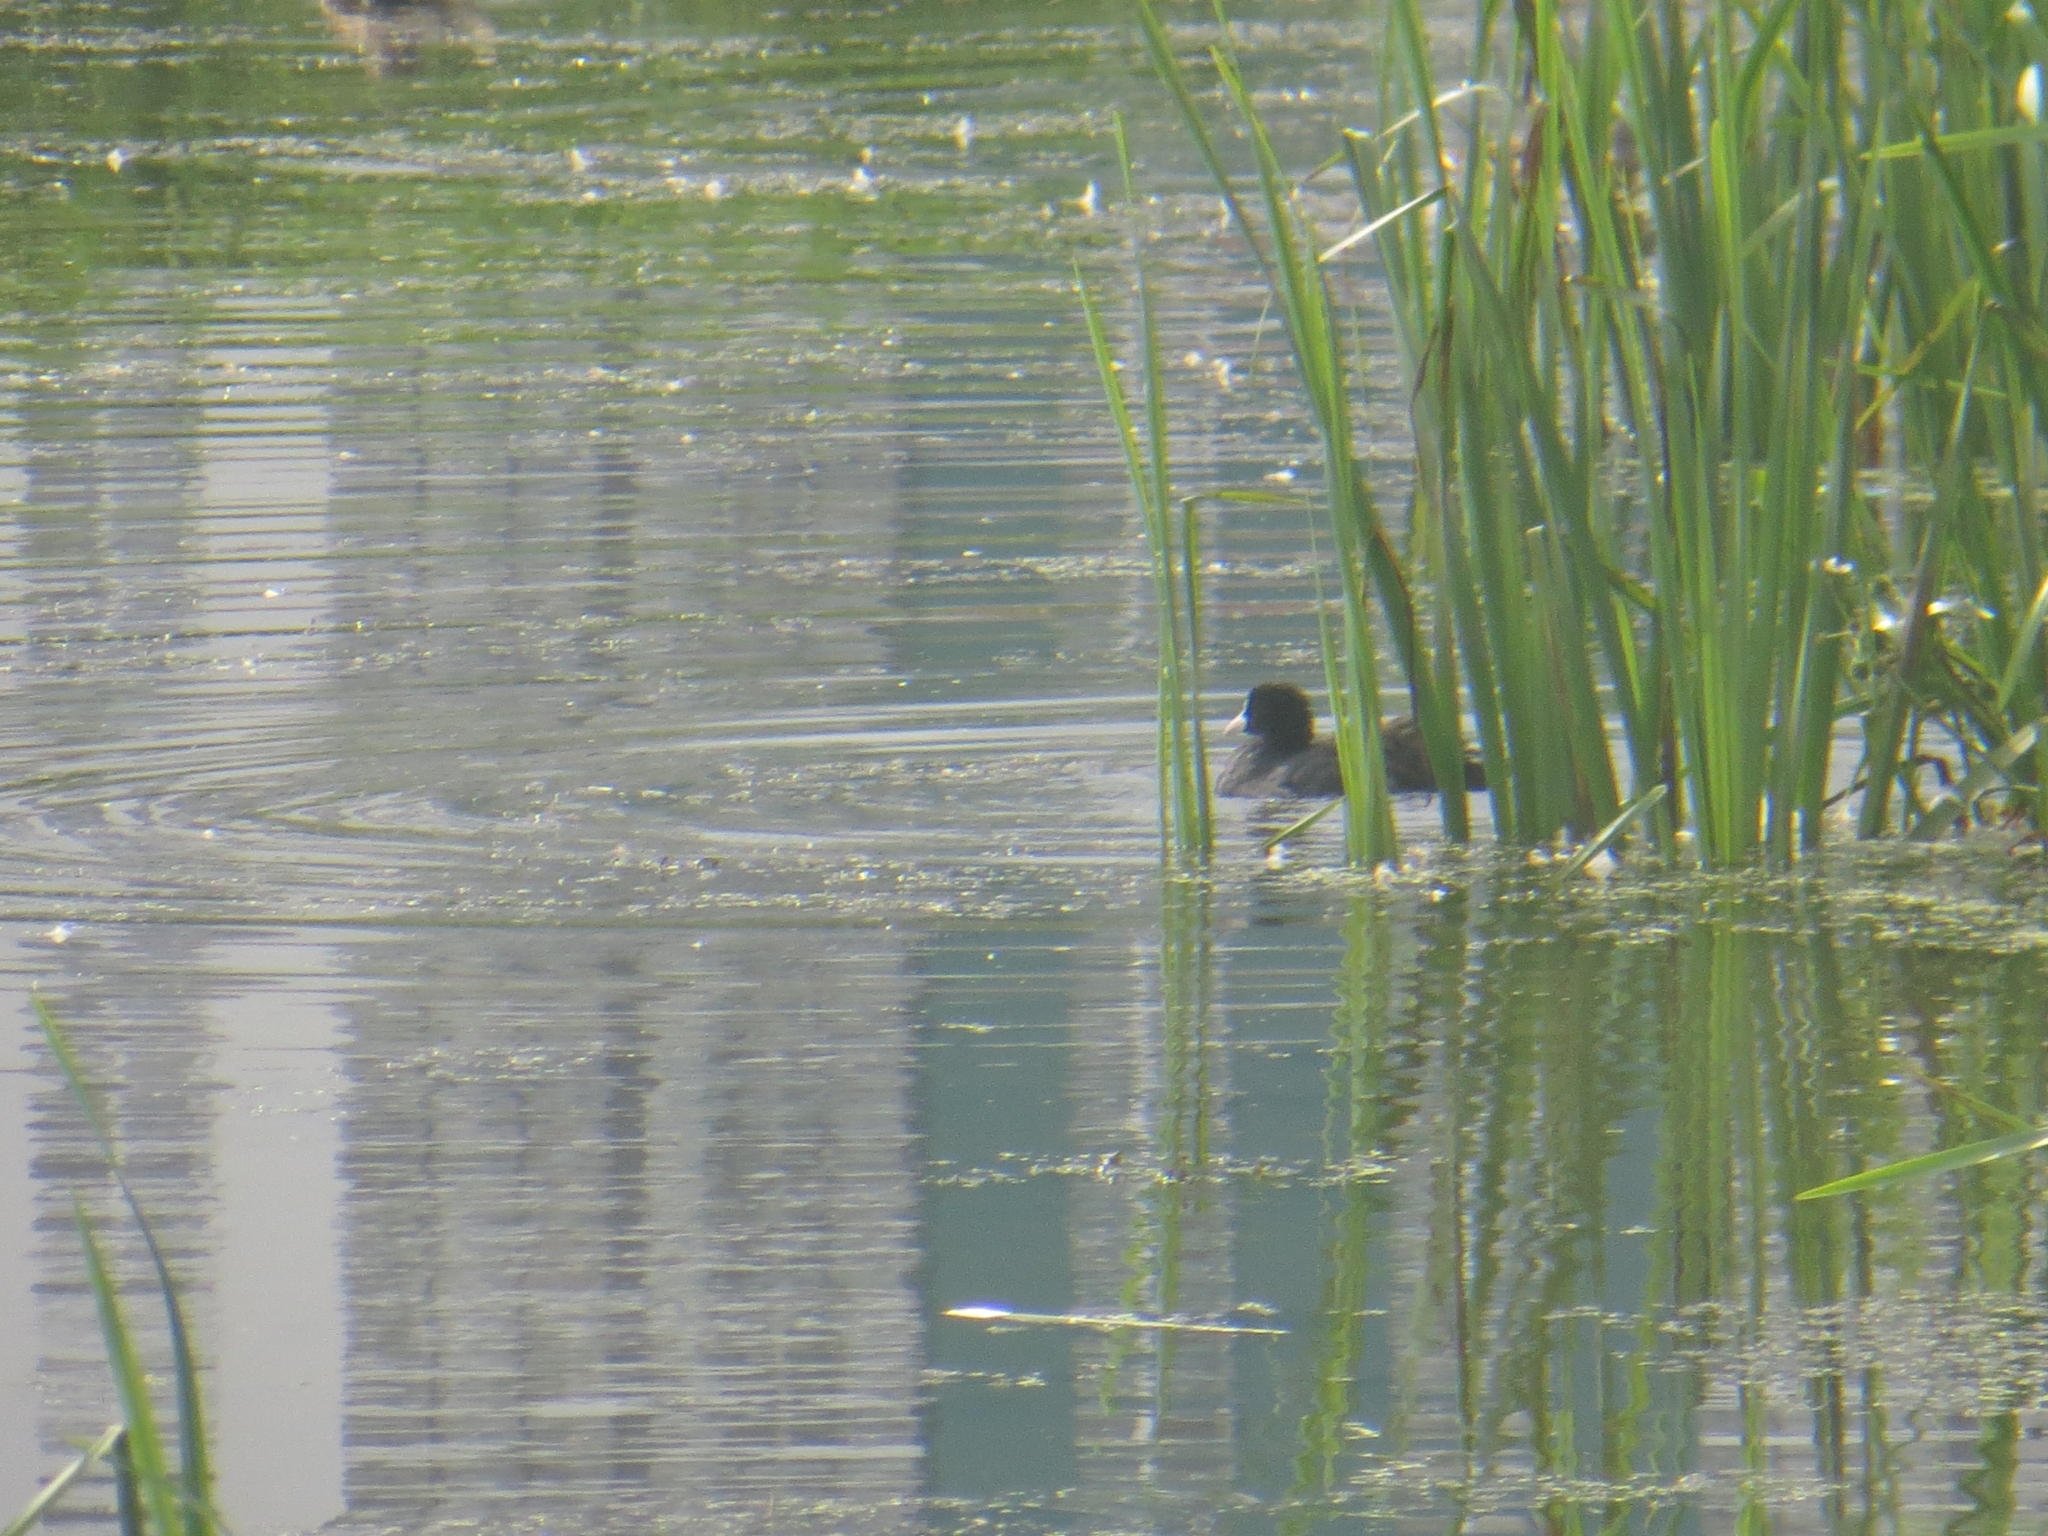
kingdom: Animalia
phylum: Chordata
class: Aves
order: Gruiformes
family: Rallidae
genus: Fulica
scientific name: Fulica atra
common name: Eurasian coot
